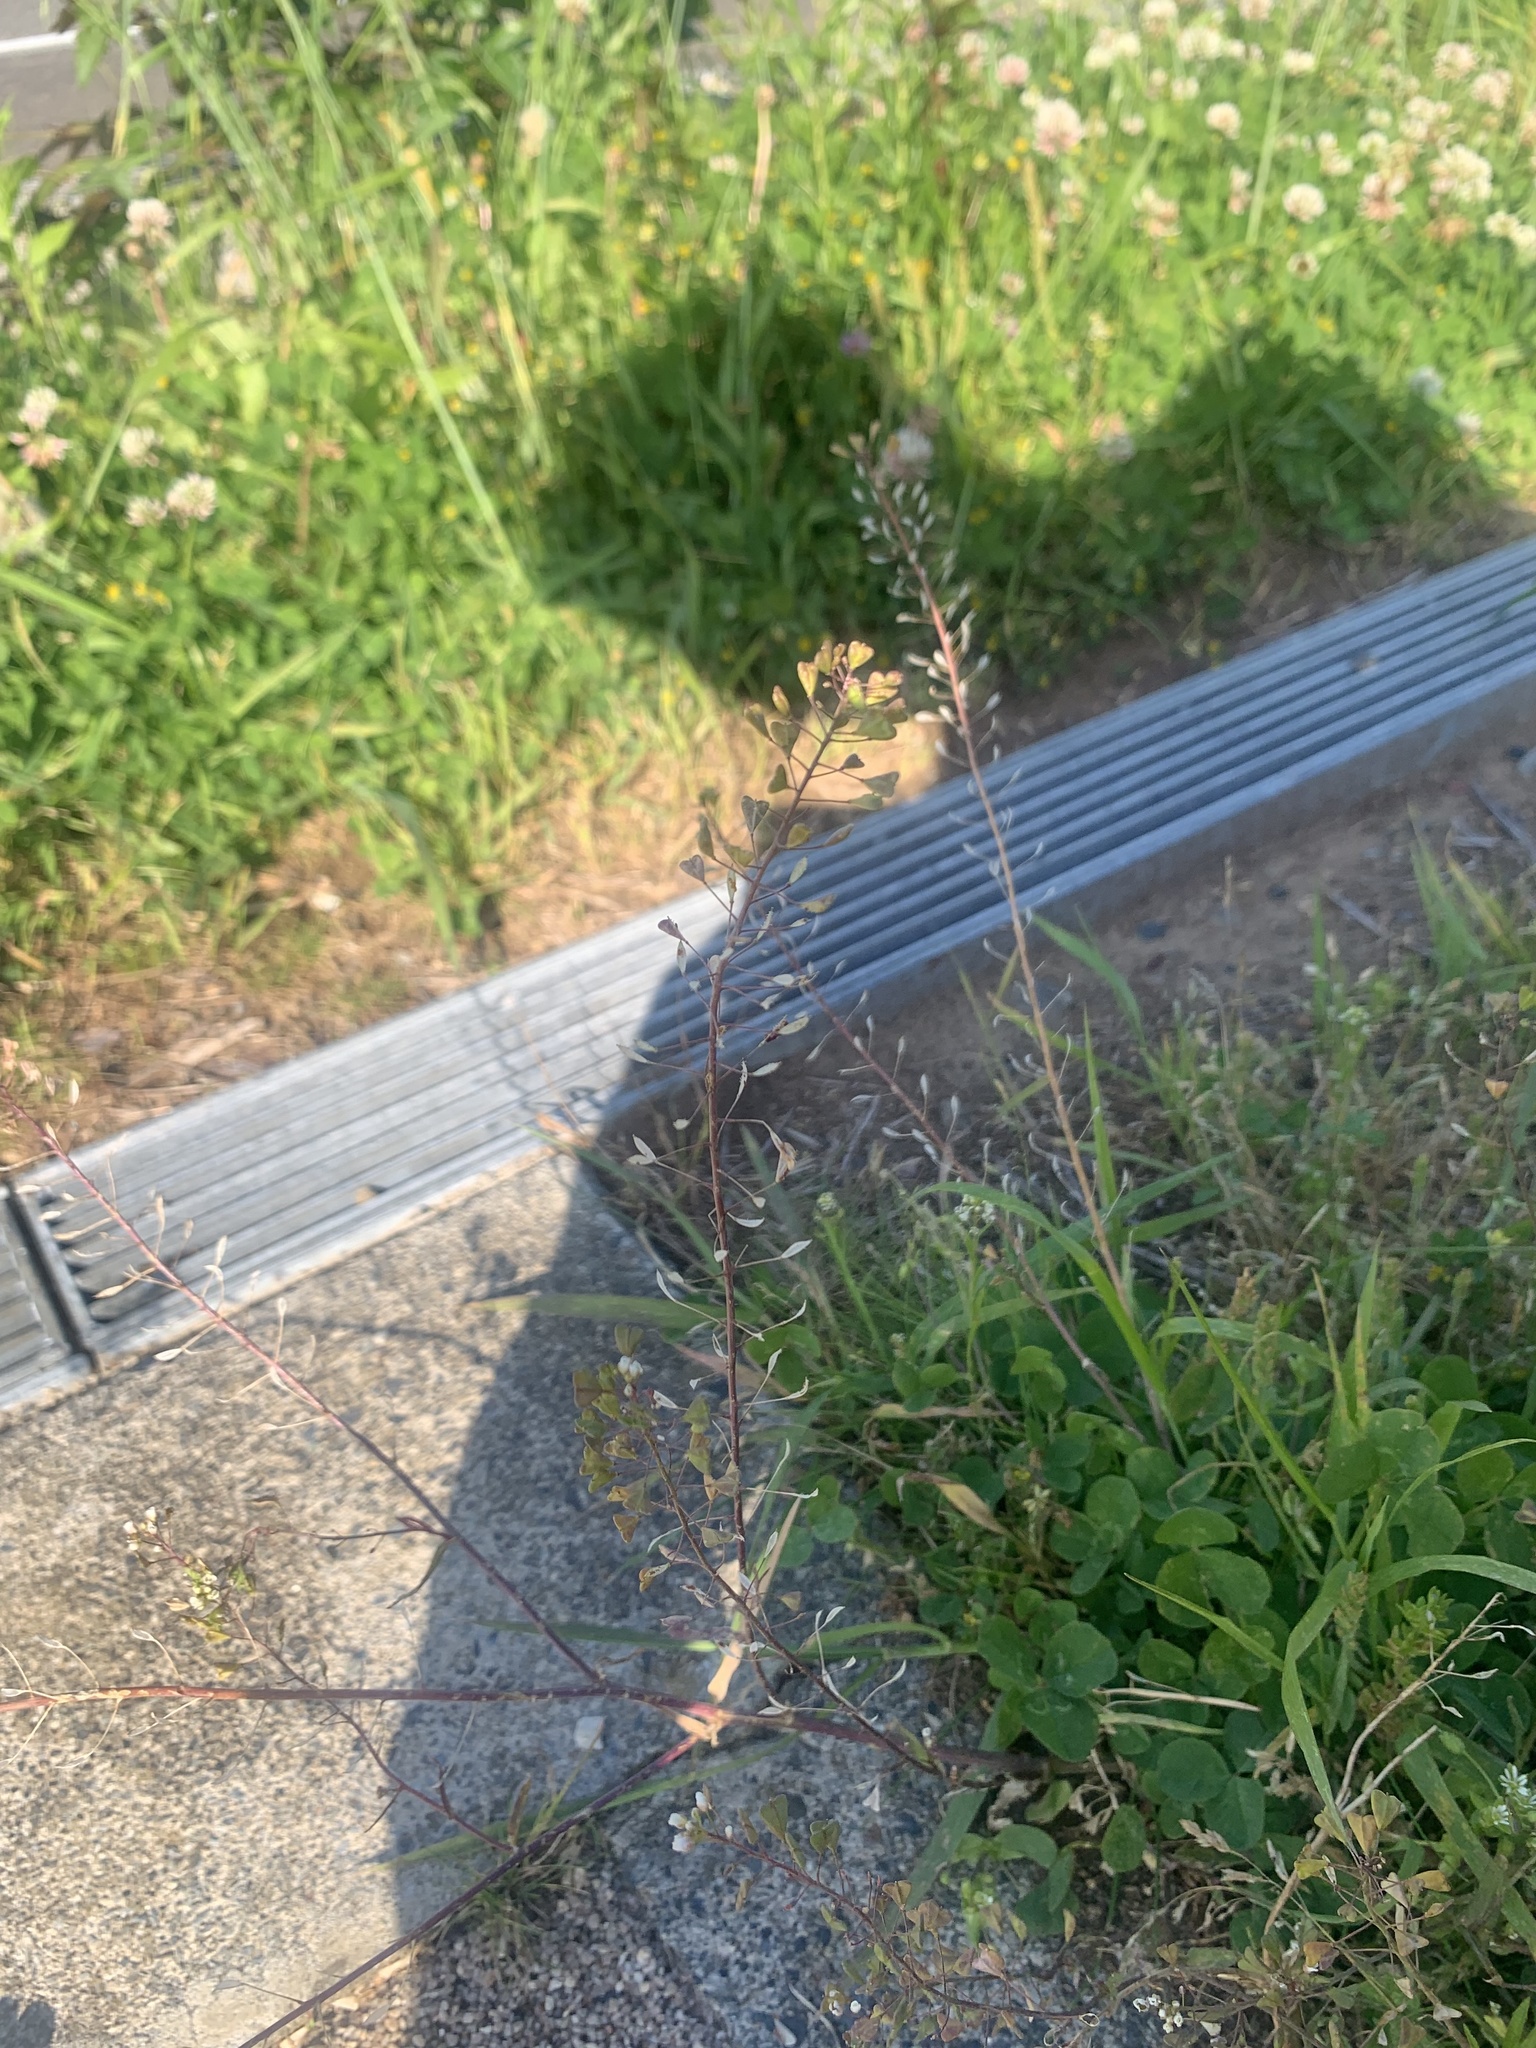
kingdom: Plantae
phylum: Tracheophyta
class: Magnoliopsida
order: Brassicales
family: Brassicaceae
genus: Capsella
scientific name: Capsella bursa-pastoris
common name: Shepherd's purse
